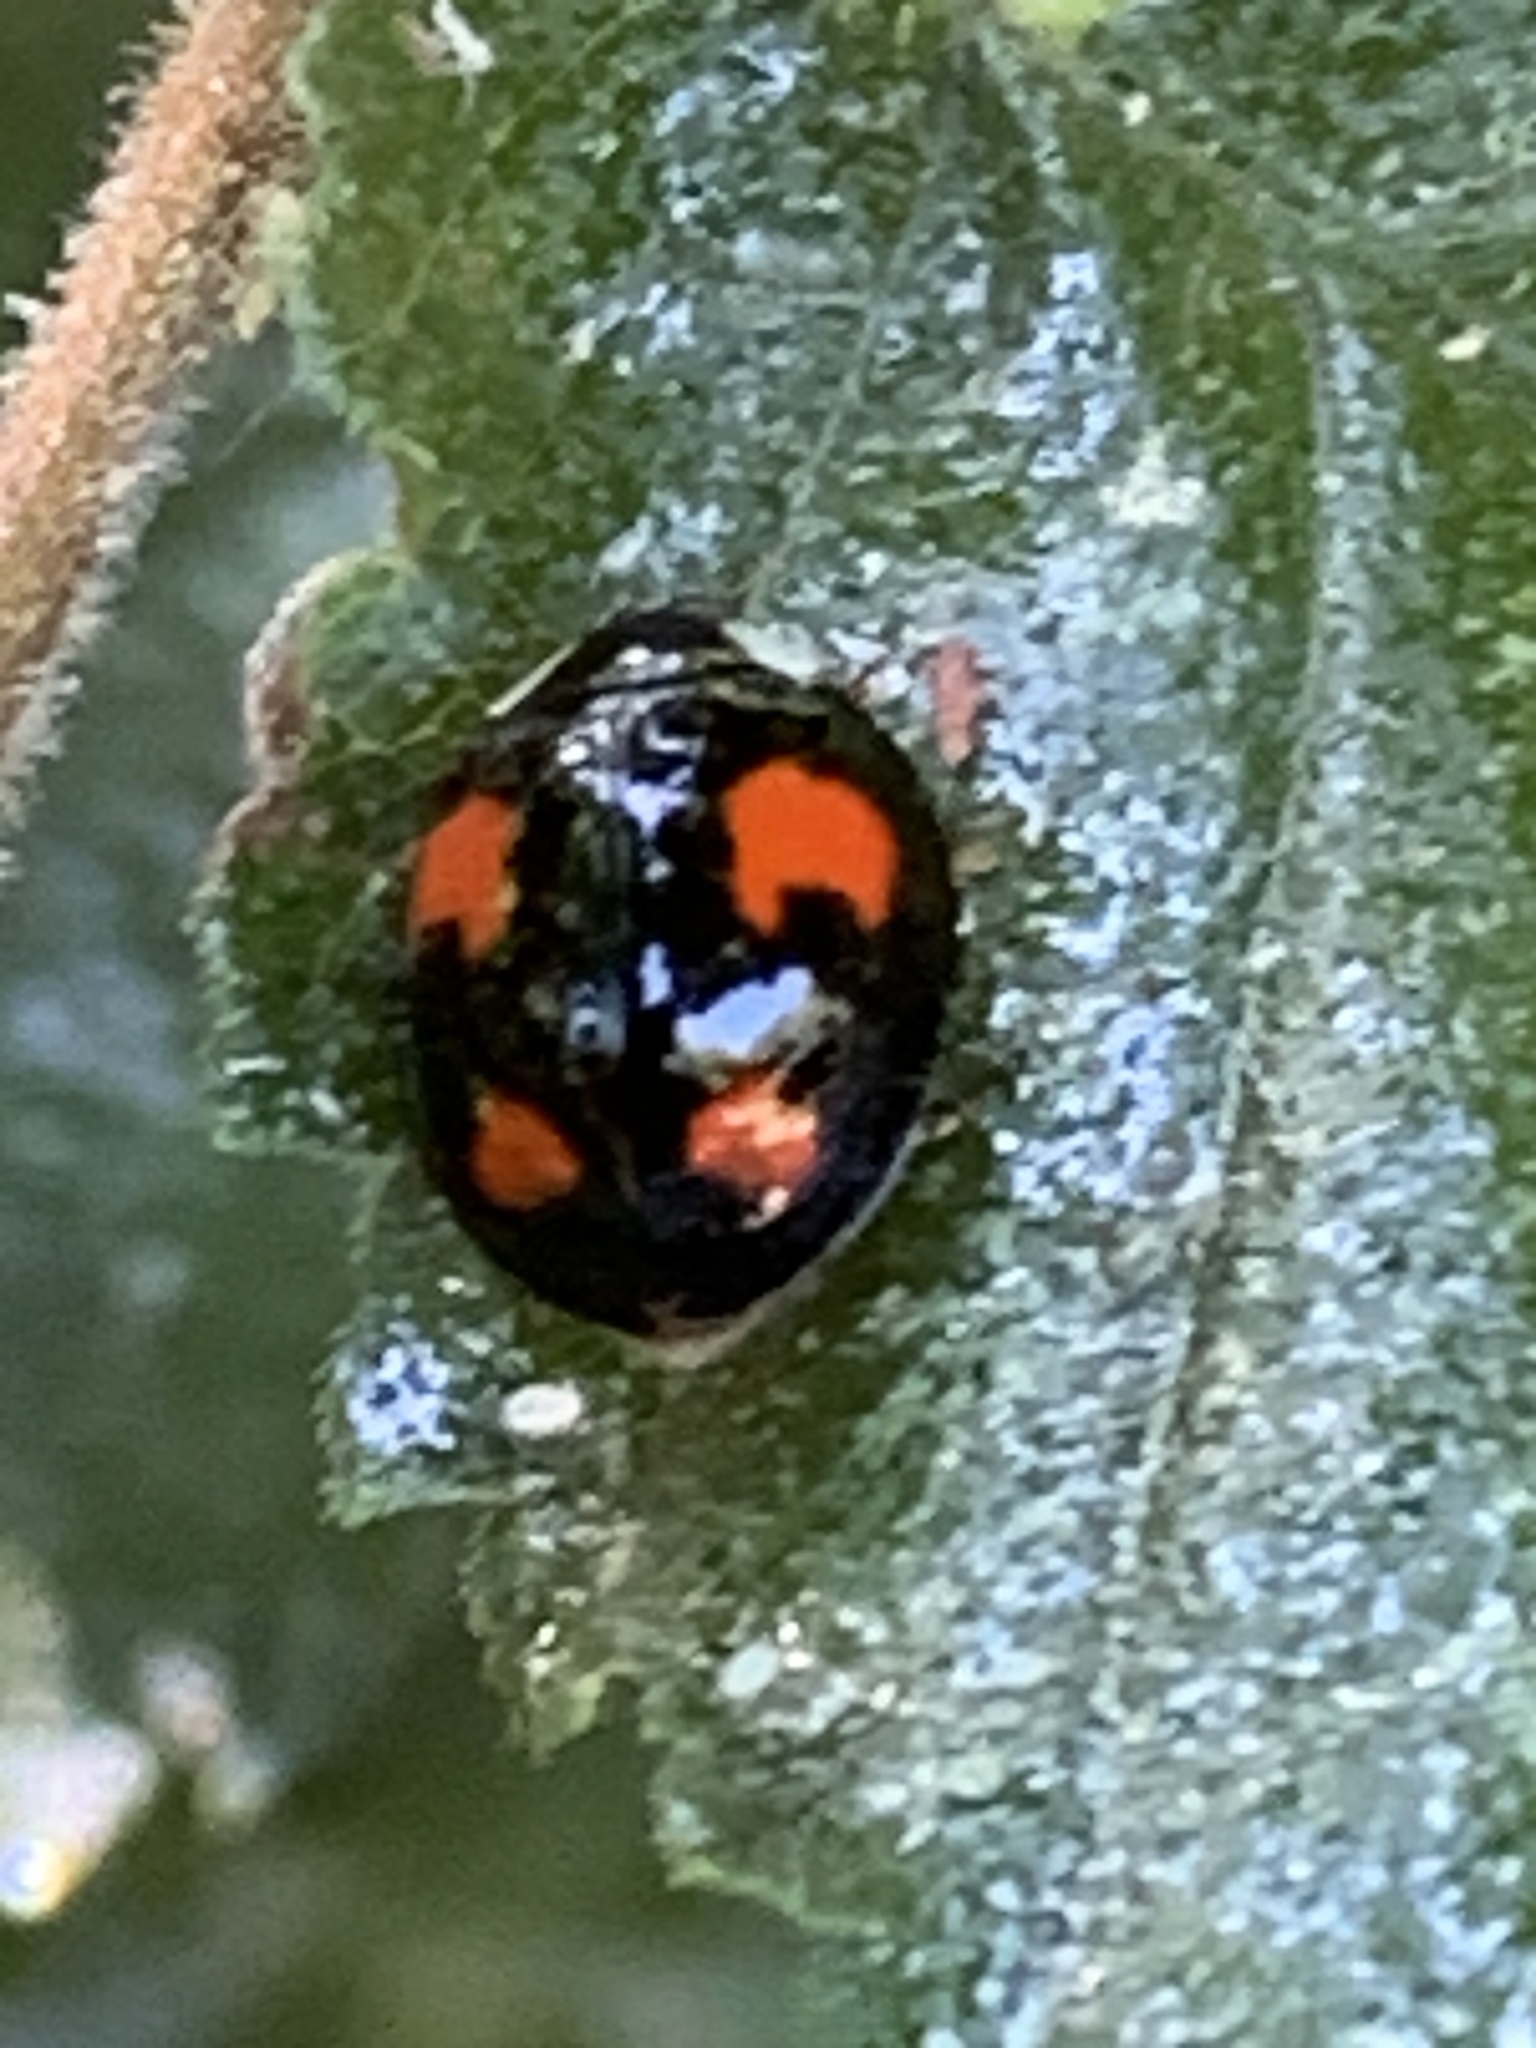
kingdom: Animalia
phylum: Arthropoda
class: Insecta
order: Coleoptera
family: Coccinellidae
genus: Harmonia
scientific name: Harmonia axyridis
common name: Harlequin ladybird
